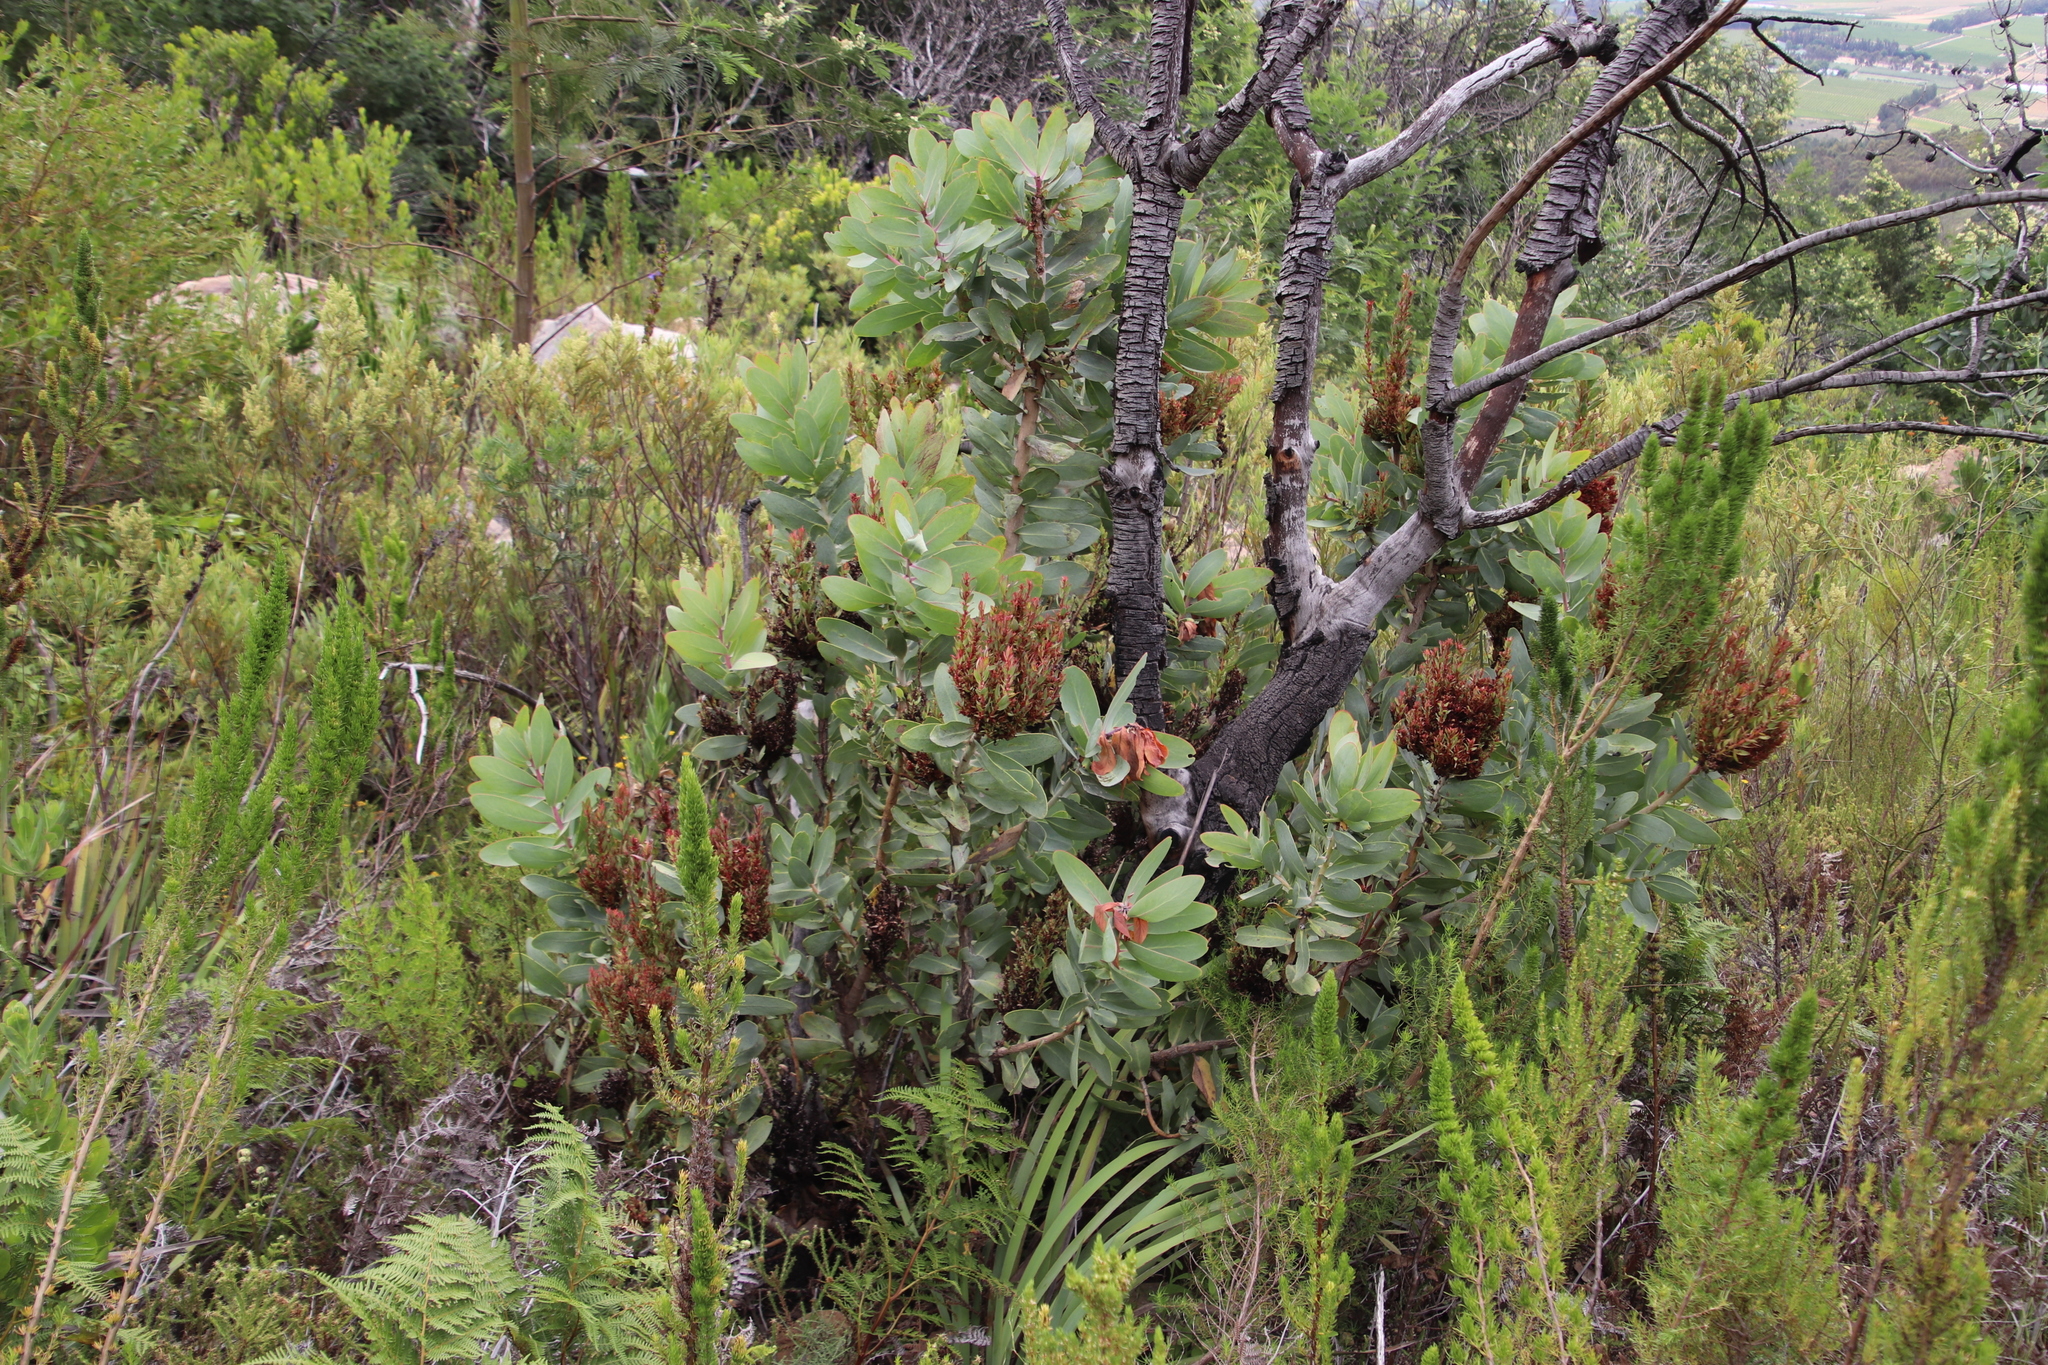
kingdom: Plantae
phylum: Tracheophyta
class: Magnoliopsida
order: Proteales
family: Proteaceae
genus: Protea
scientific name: Protea nitida
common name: Tree protea
